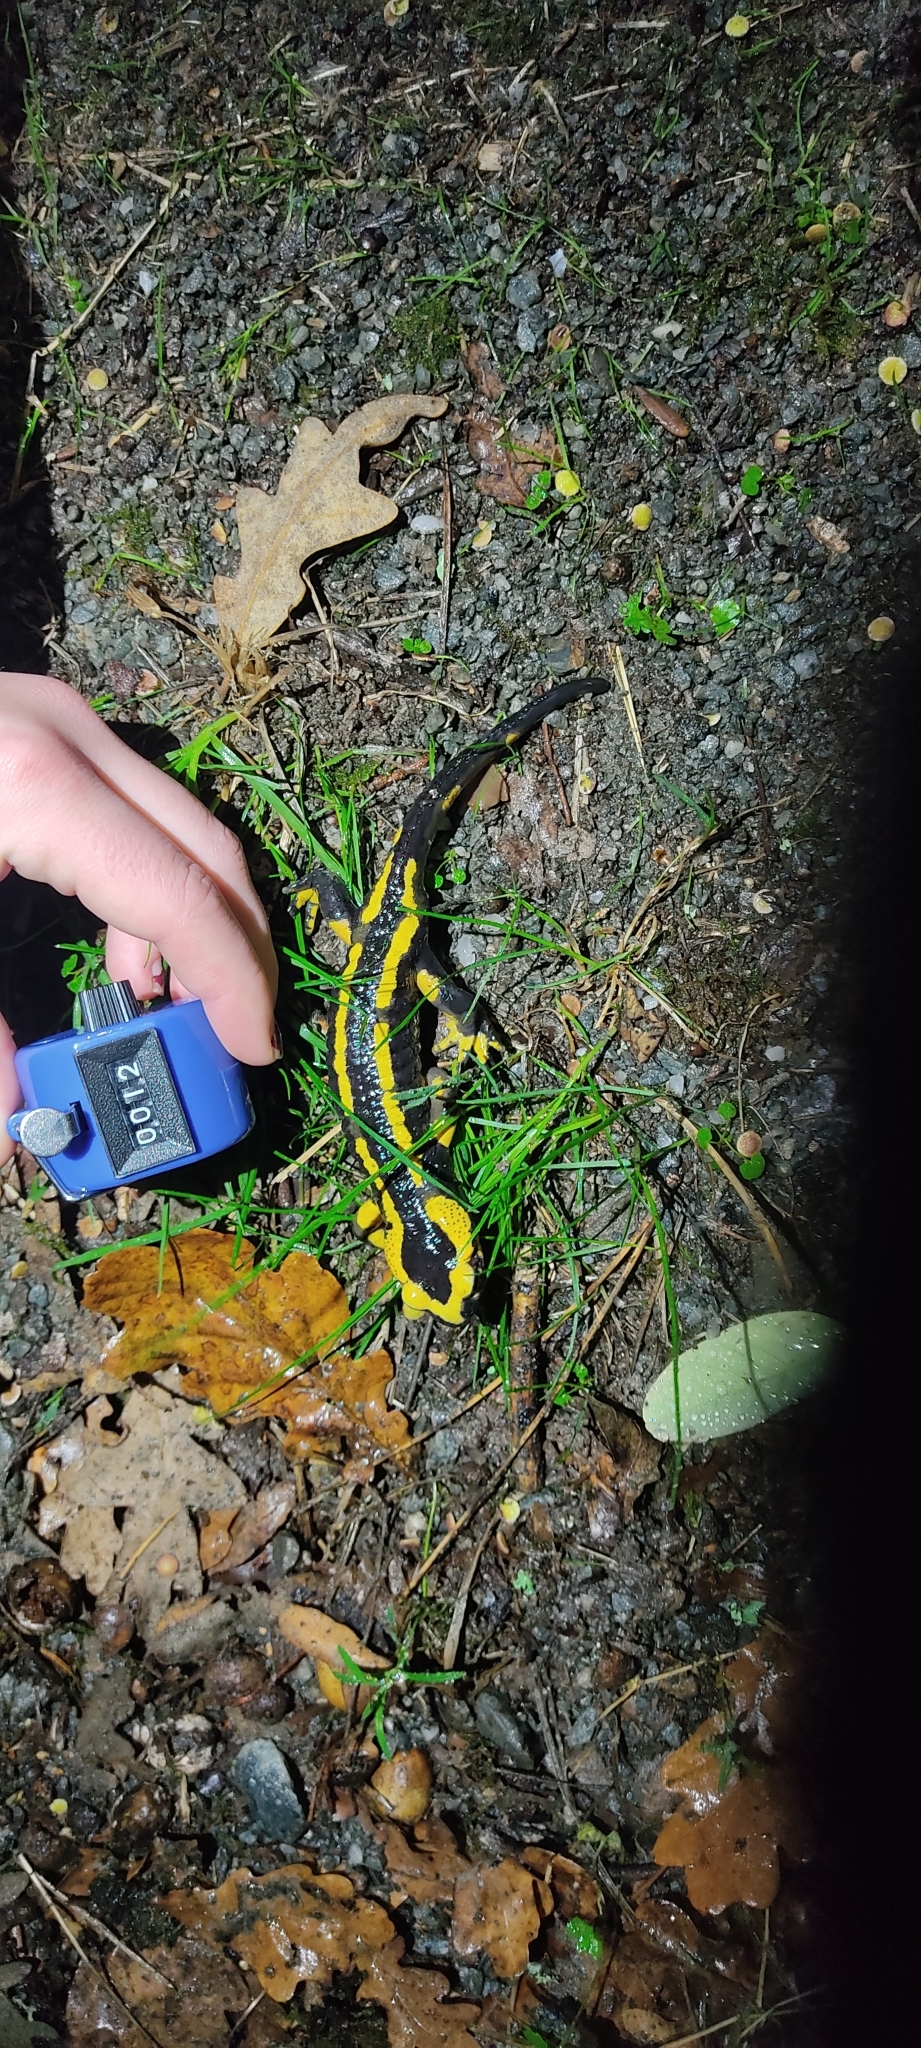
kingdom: Animalia
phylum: Chordata
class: Amphibia
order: Caudata
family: Salamandridae
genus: Salamandra
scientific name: Salamandra salamandra
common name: Fire salamander
